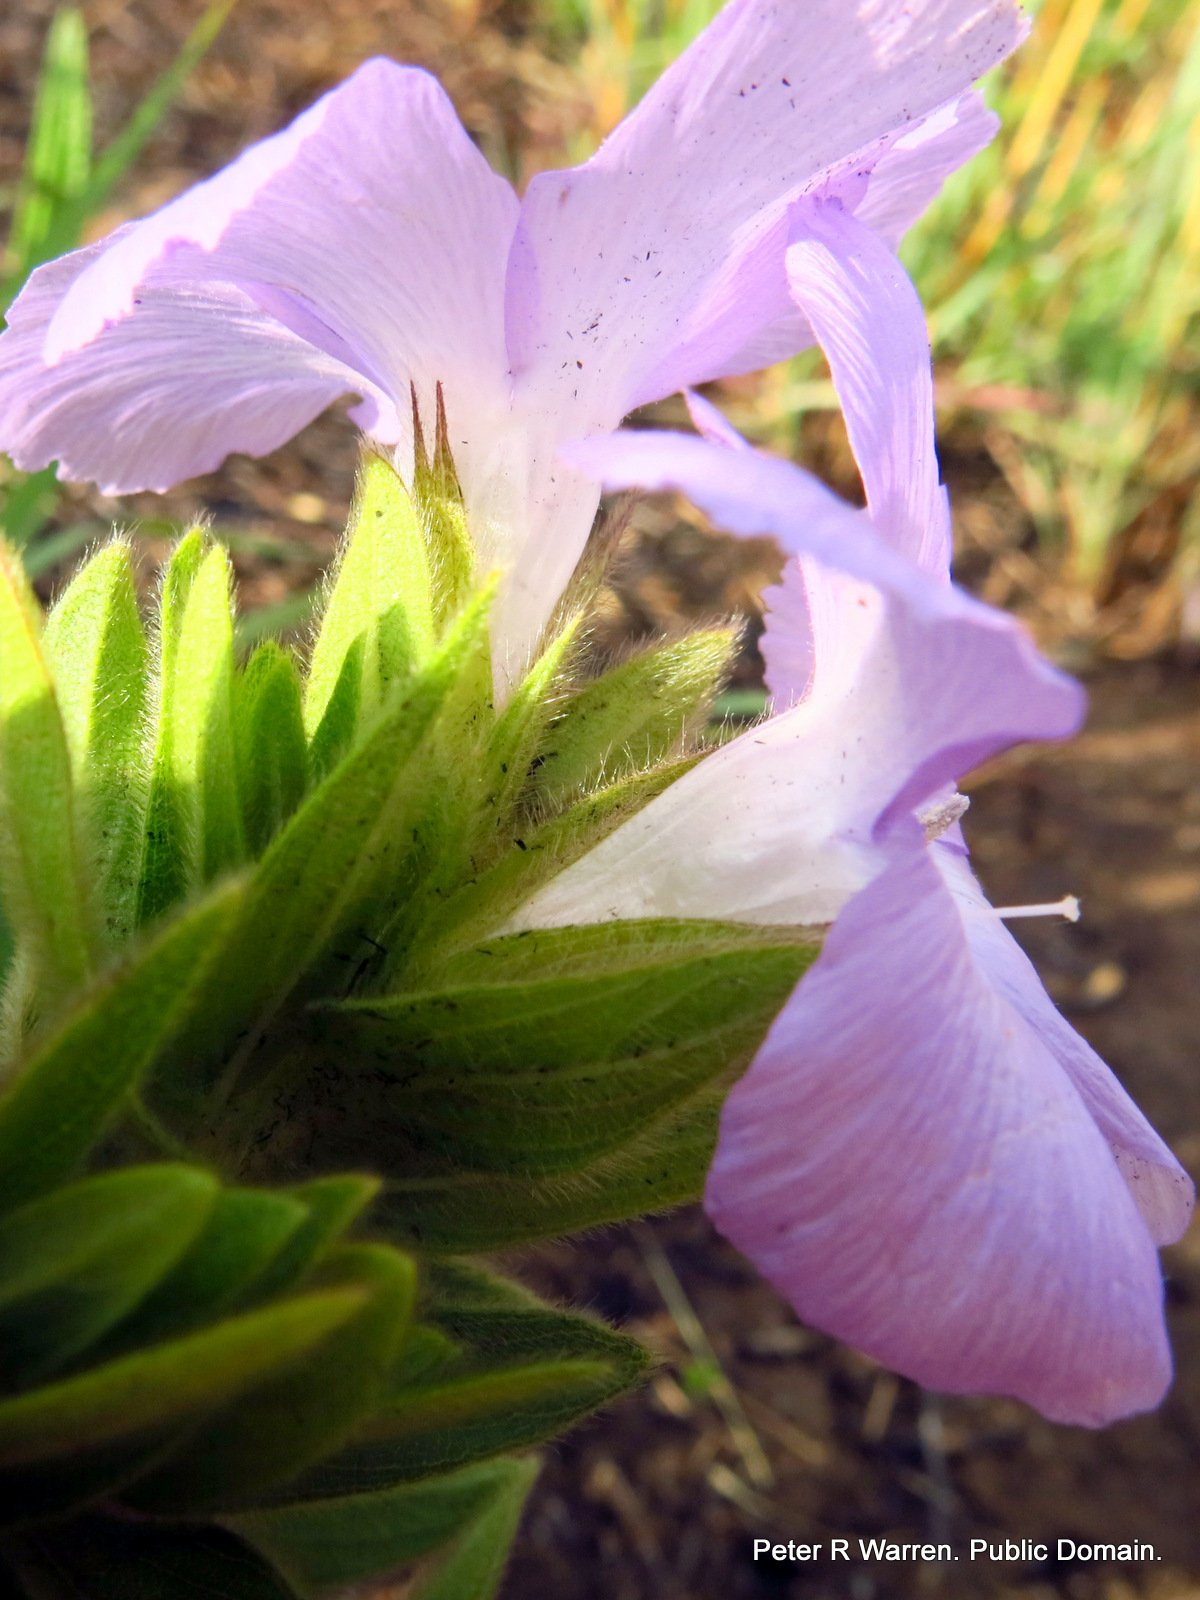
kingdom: Plantae
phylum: Tracheophyta
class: Magnoliopsida
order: Lamiales
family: Acanthaceae
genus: Barleria
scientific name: Barleria monticola
